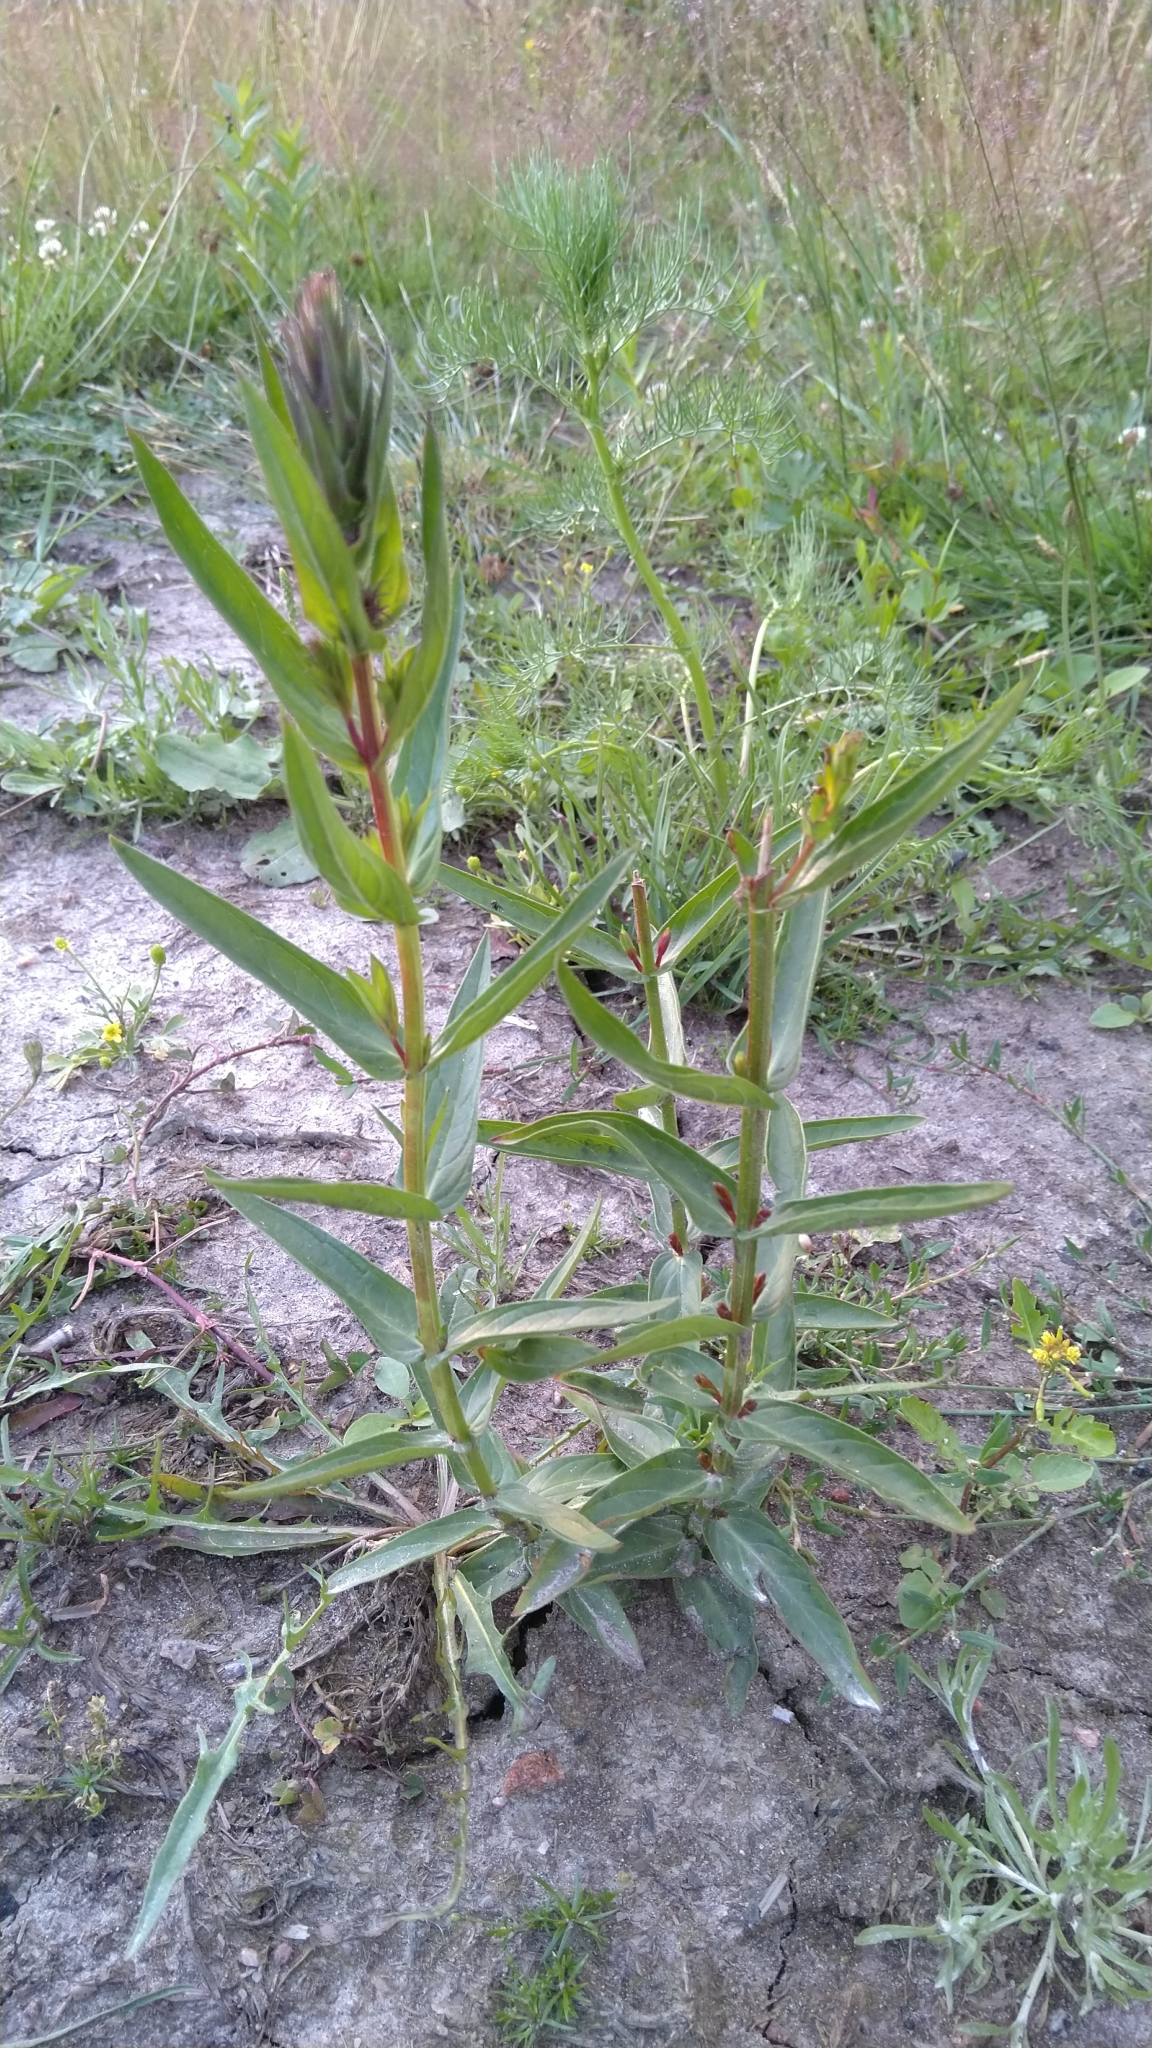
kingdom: Plantae
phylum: Tracheophyta
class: Magnoliopsida
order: Myrtales
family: Lythraceae
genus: Lythrum
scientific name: Lythrum salicaria
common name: Purple loosestrife
